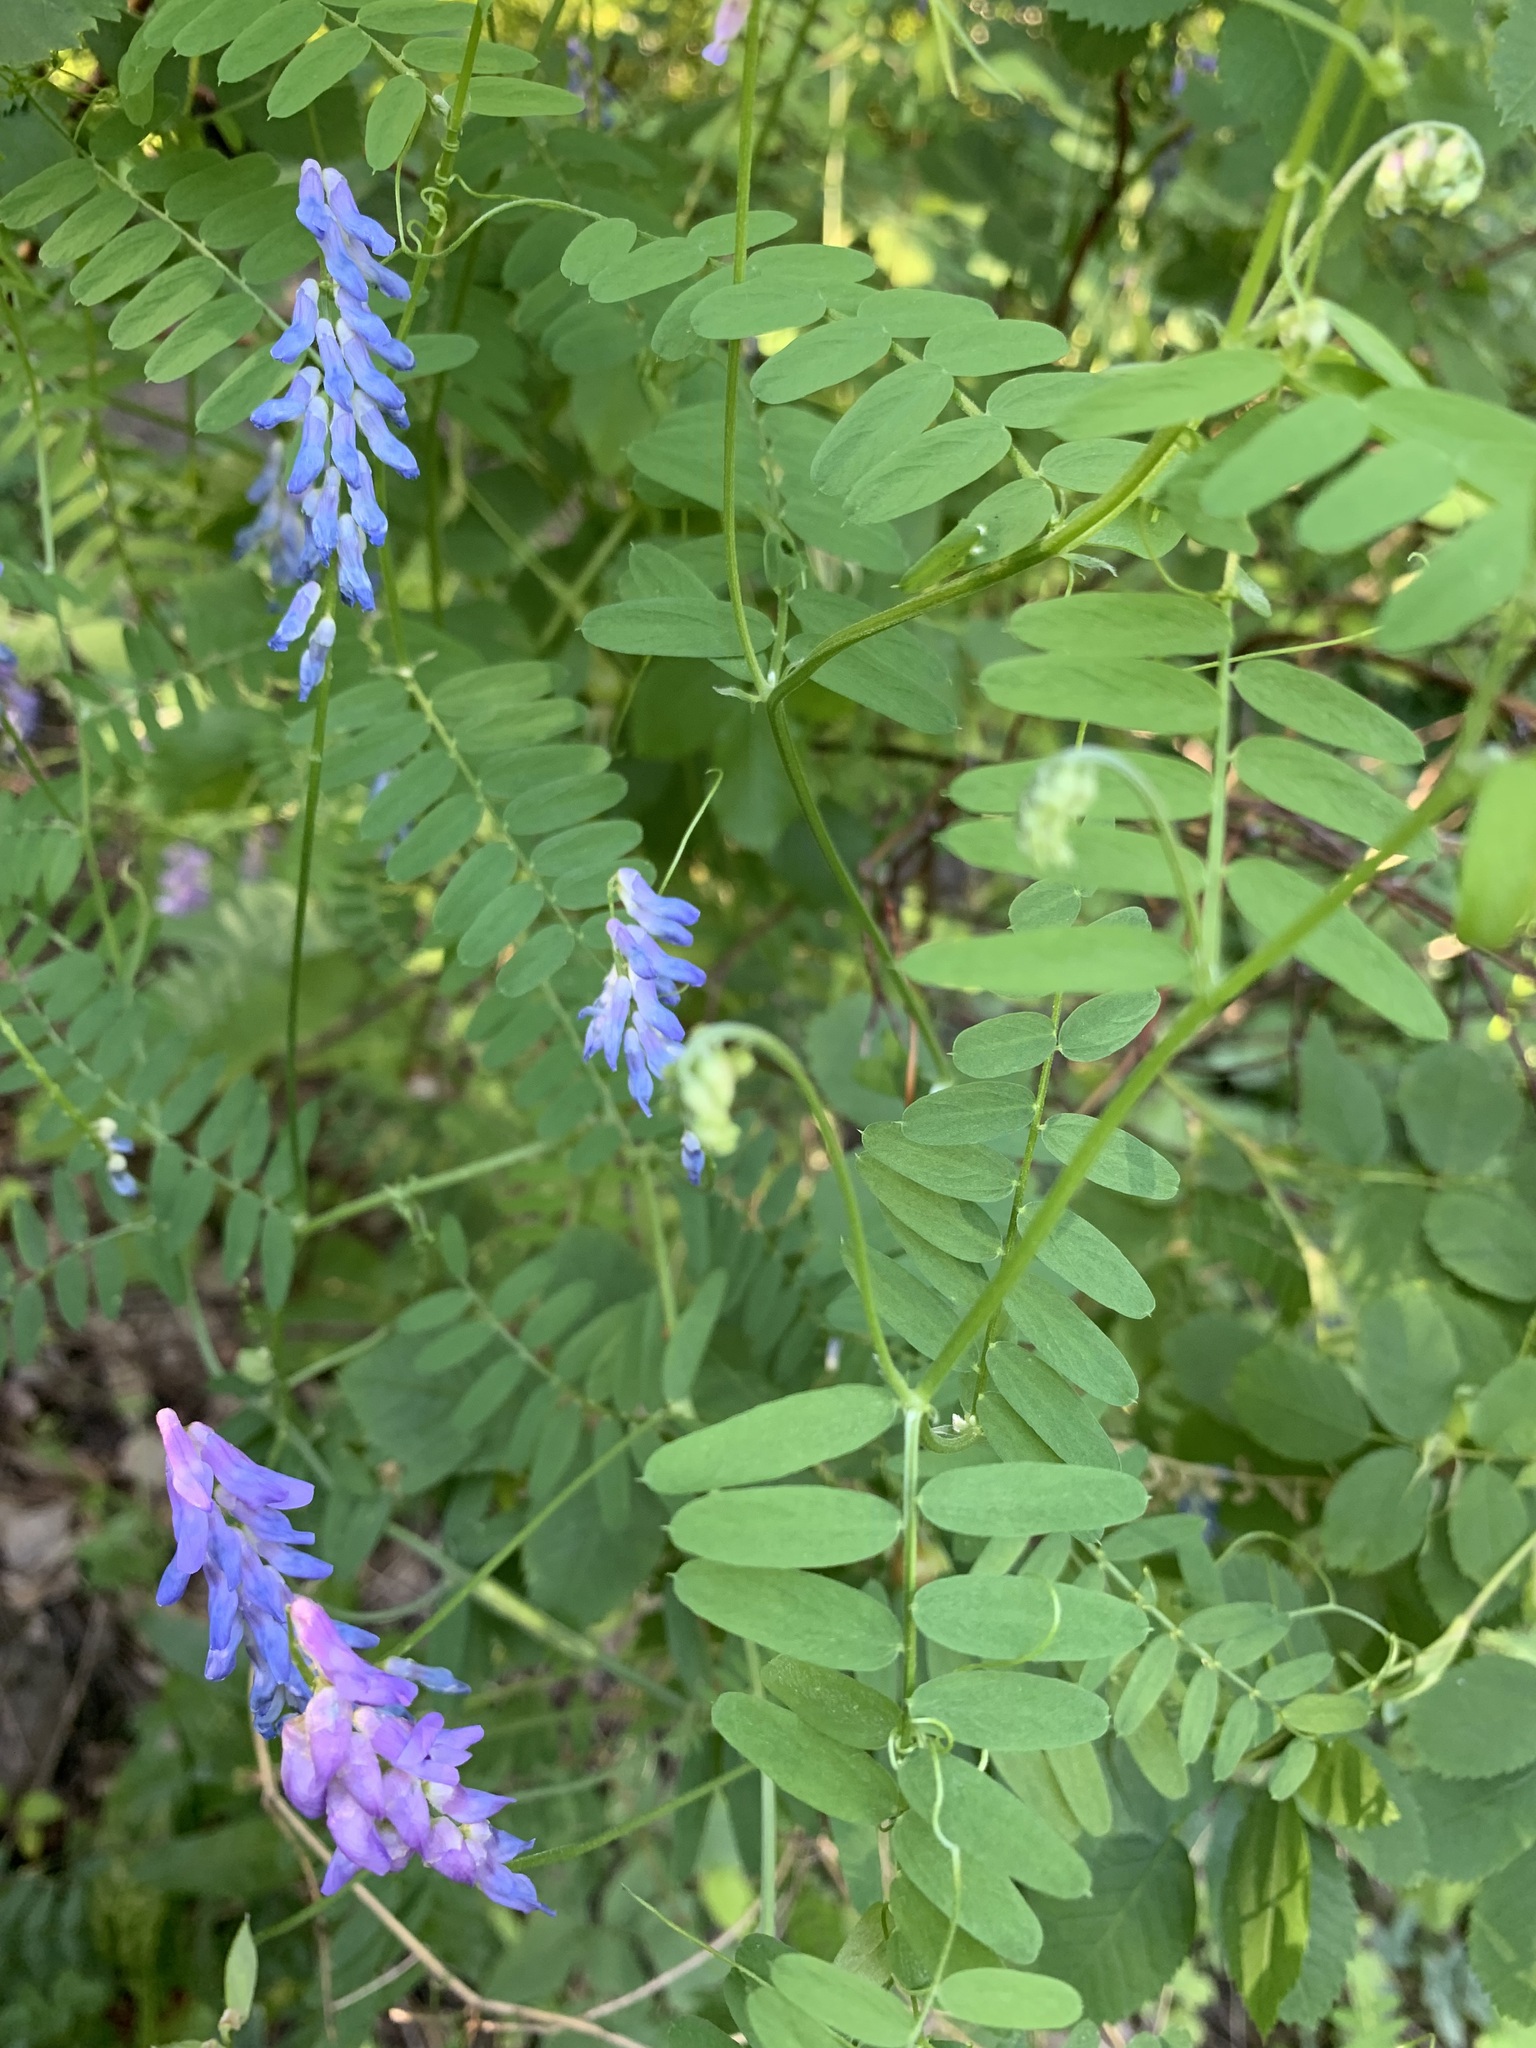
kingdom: Plantae
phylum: Tracheophyta
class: Magnoliopsida
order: Fabales
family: Fabaceae
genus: Vicia
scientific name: Vicia cracca
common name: Bird vetch
